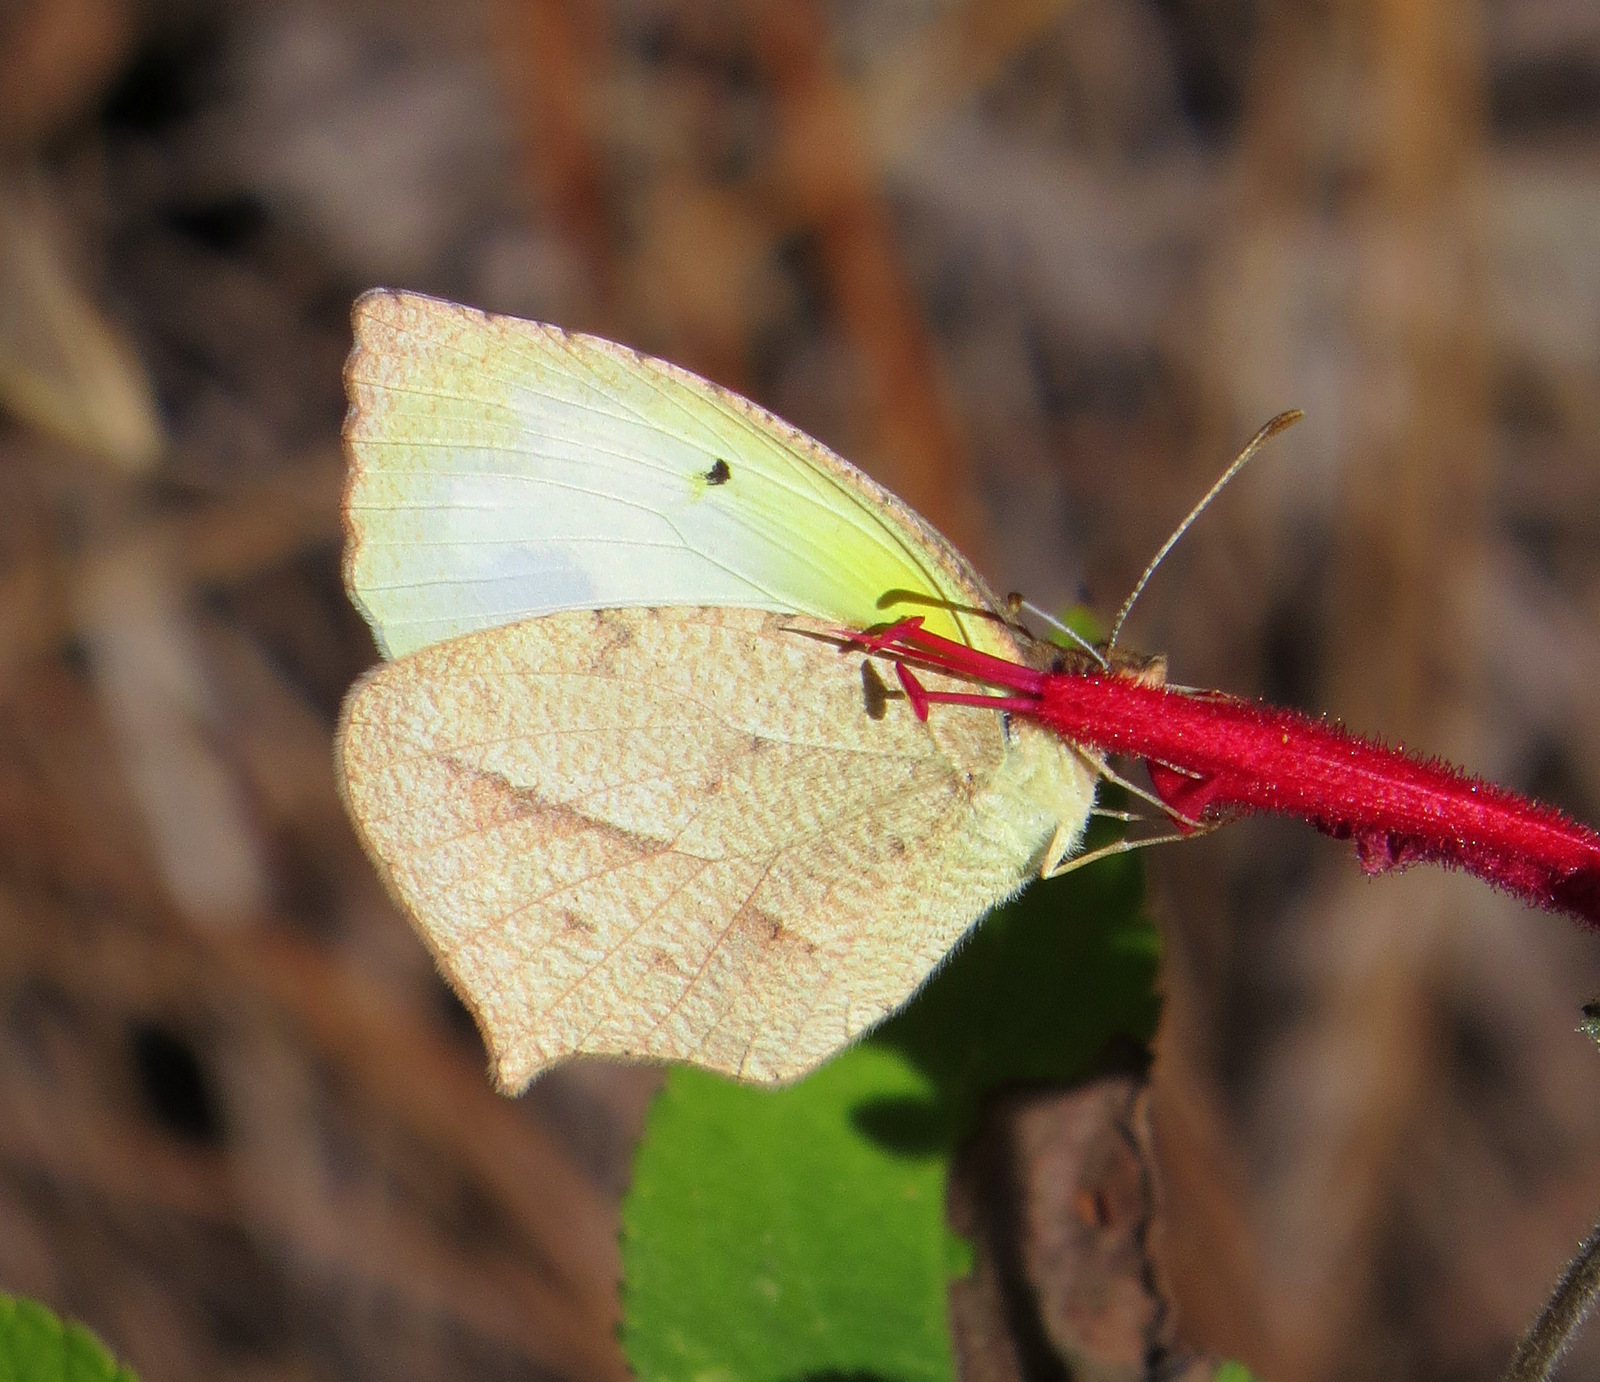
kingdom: Animalia
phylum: Arthropoda
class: Insecta
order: Lepidoptera
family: Pieridae
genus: Abaeis
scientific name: Abaeis mexicana
